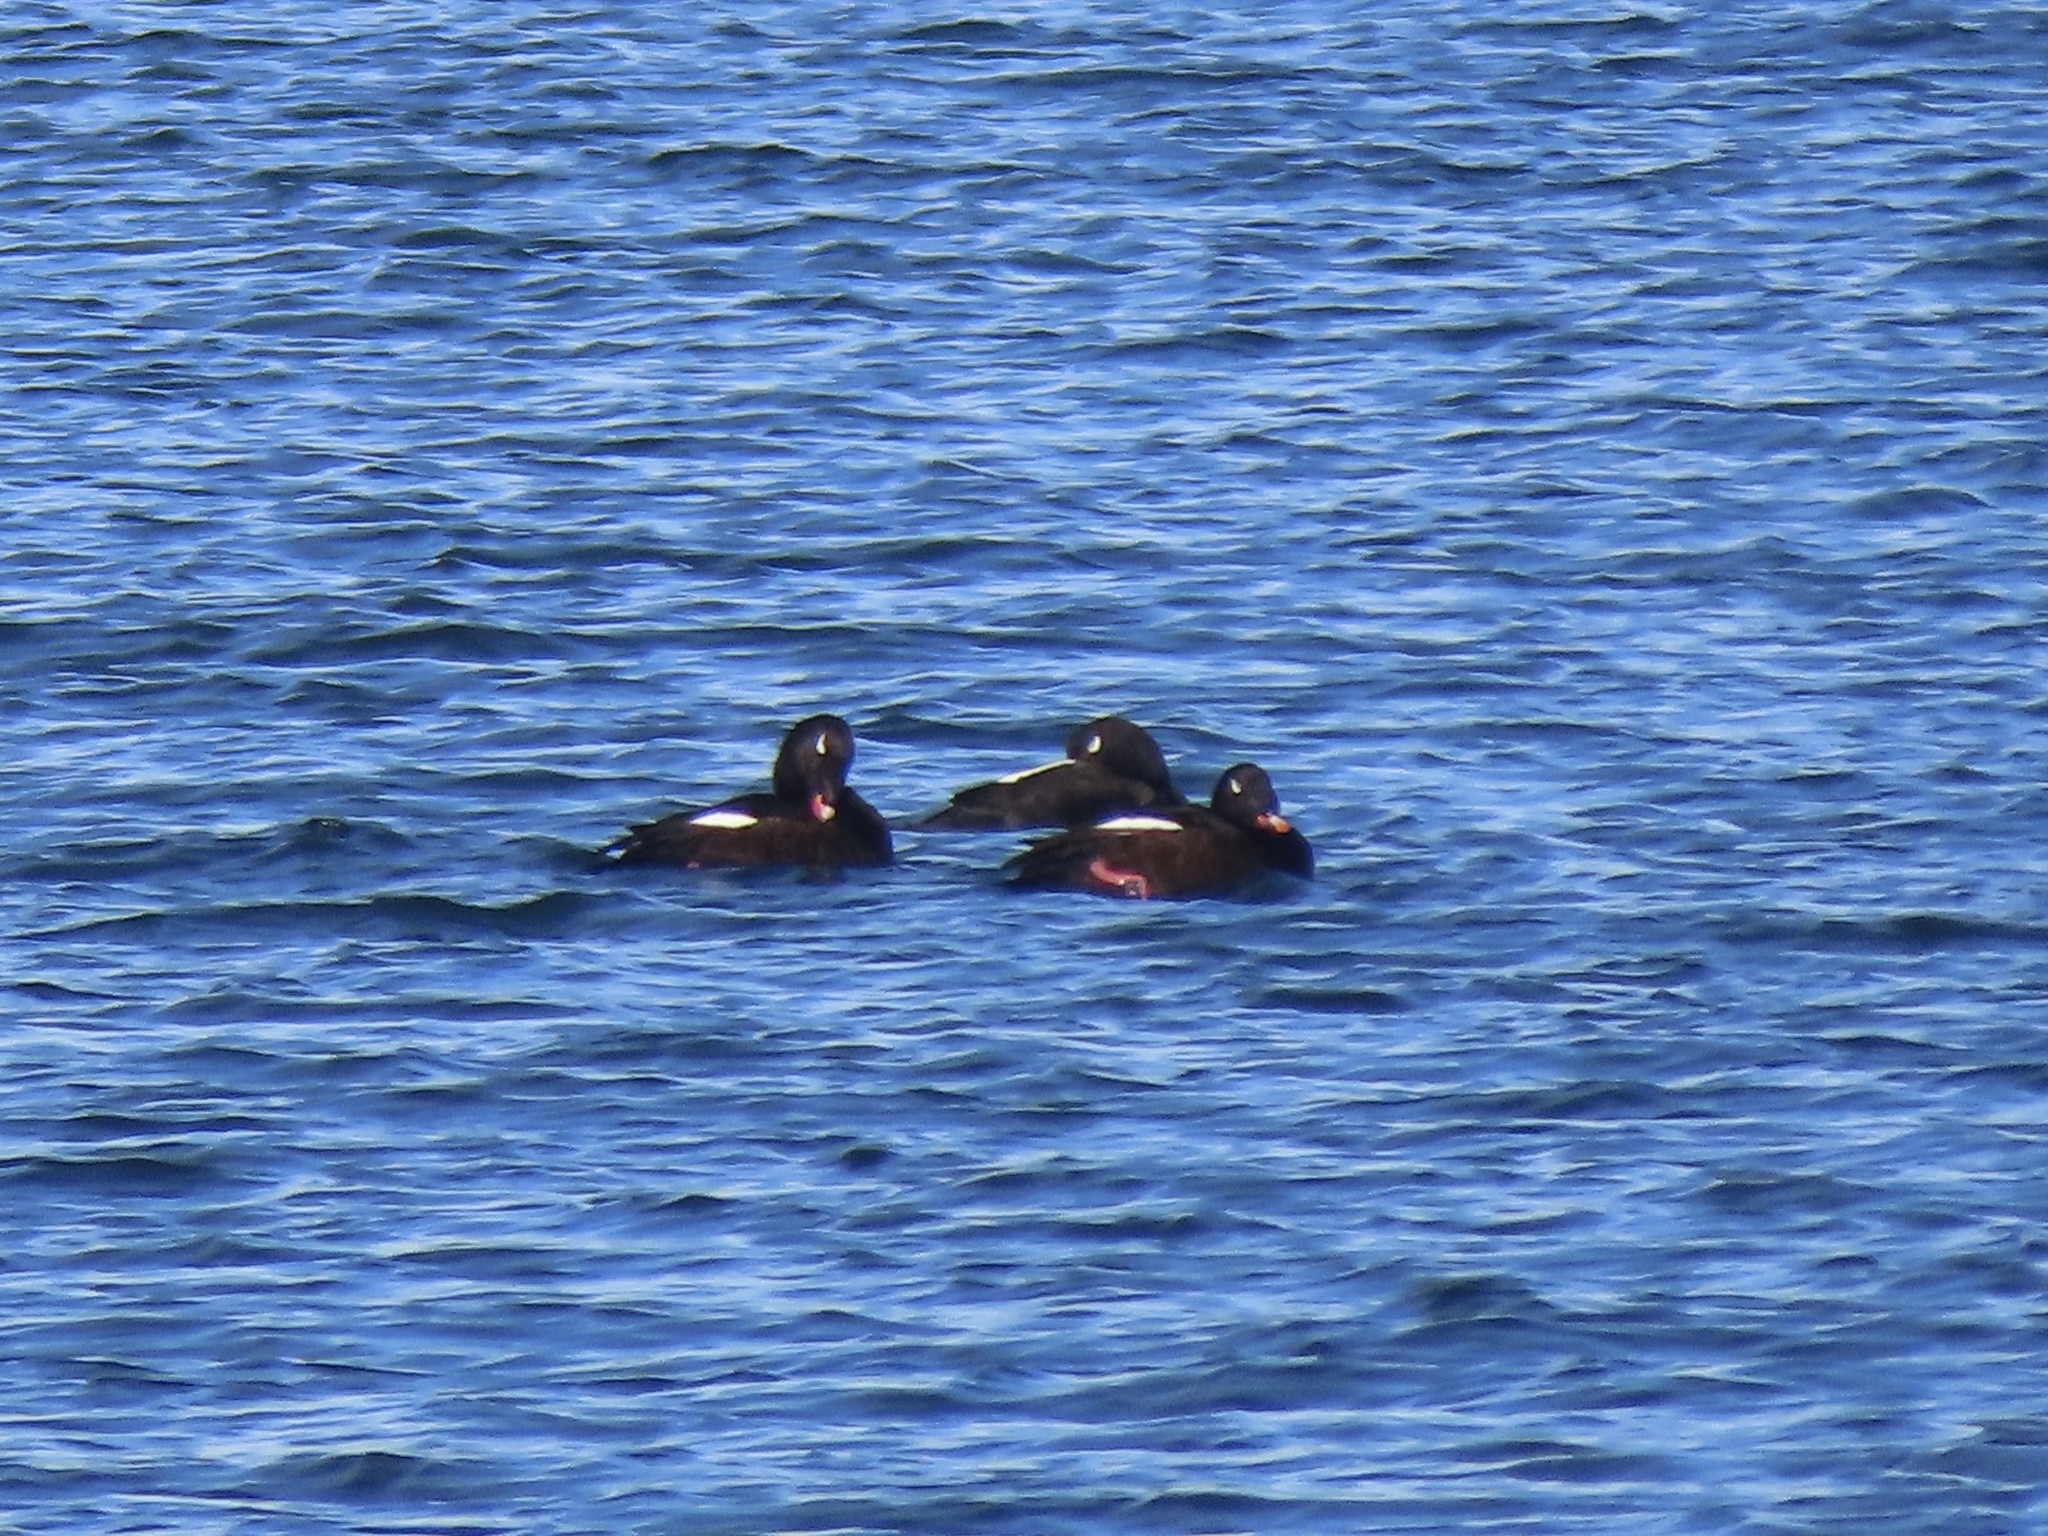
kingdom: Animalia
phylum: Chordata
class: Aves
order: Anseriformes
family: Anatidae
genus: Melanitta
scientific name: Melanitta deglandi
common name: White-winged scoter
